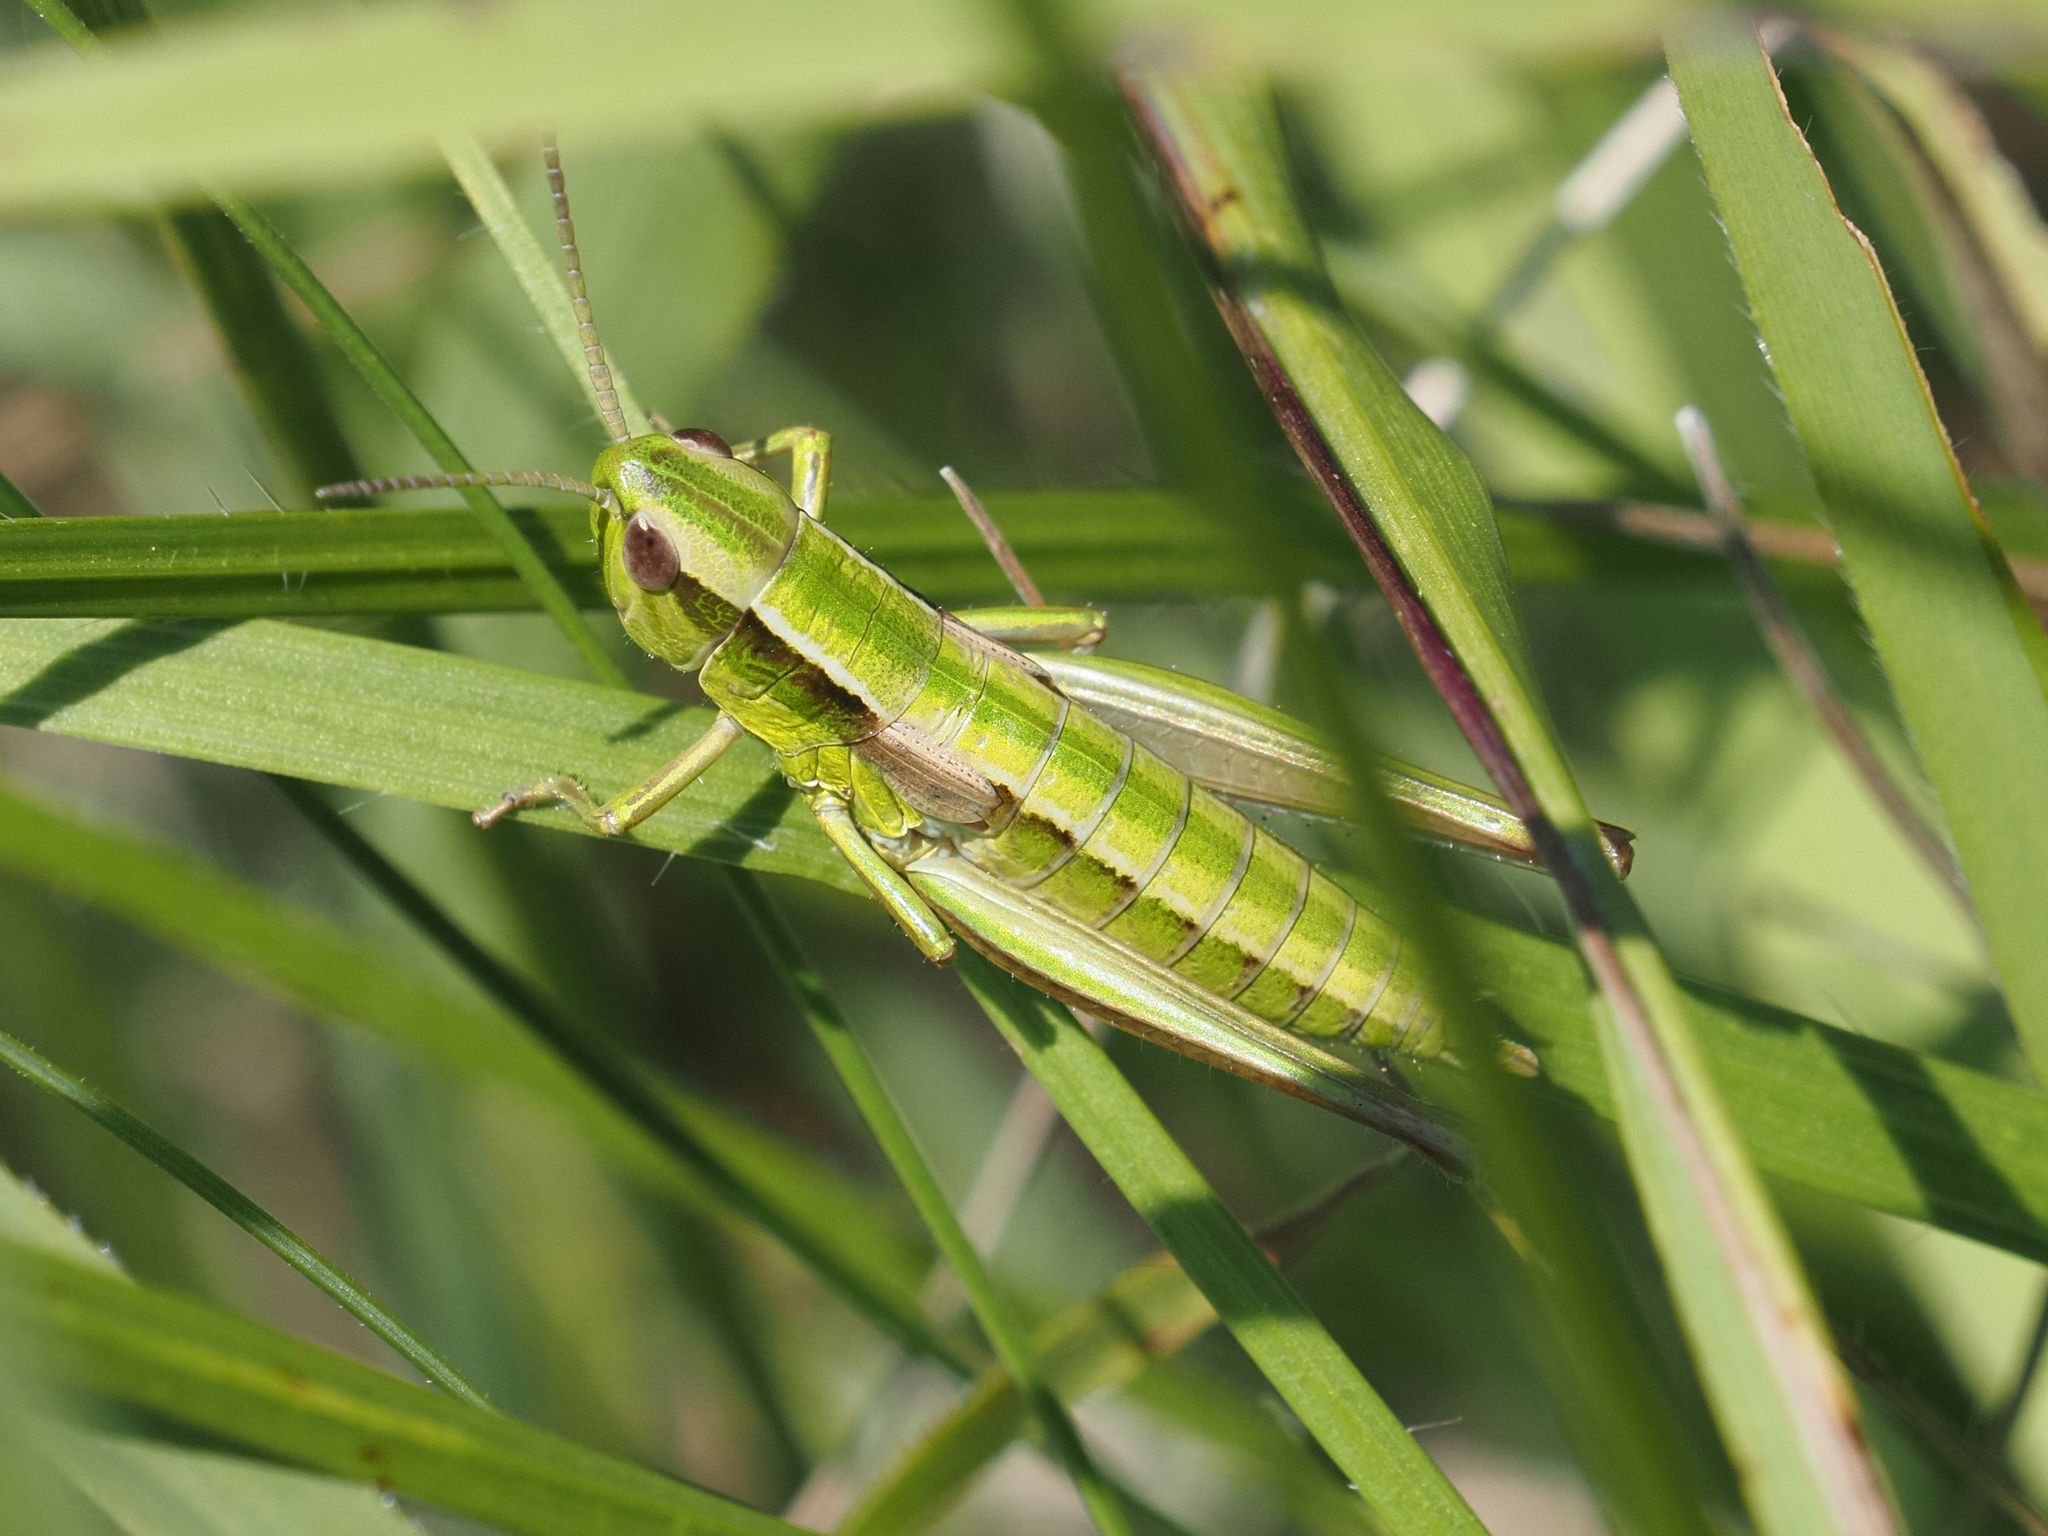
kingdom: Animalia
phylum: Arthropoda
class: Insecta
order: Orthoptera
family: Acrididae
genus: Euthystira
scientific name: Euthystira brachyptera
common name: Small gold grasshopper
